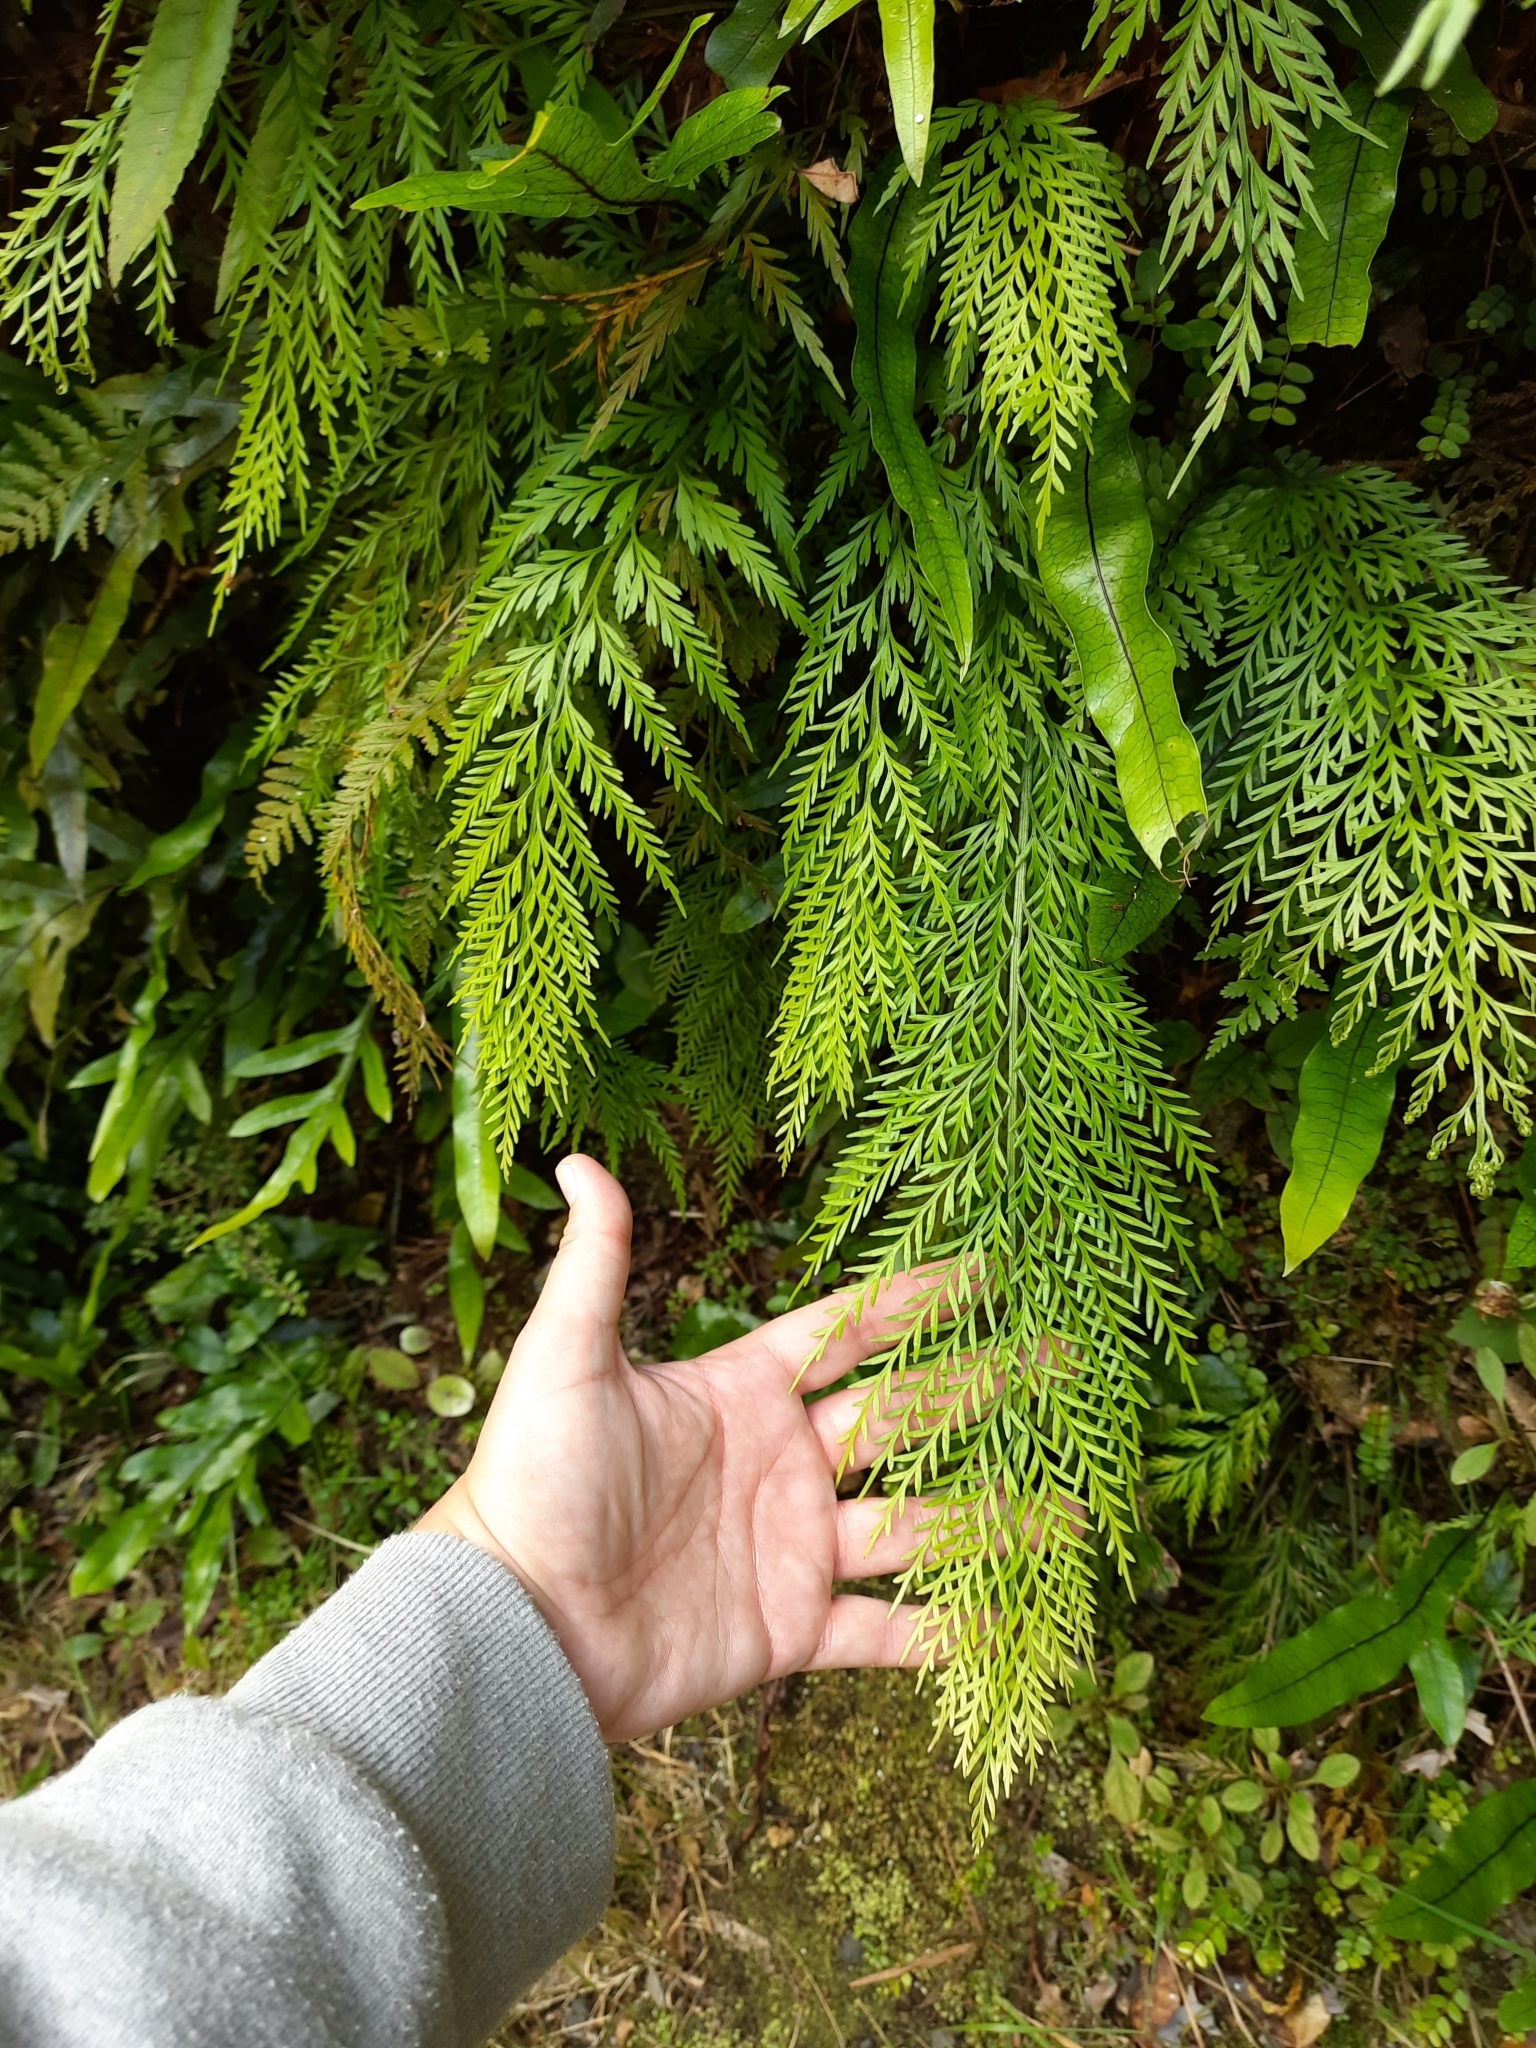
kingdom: Plantae
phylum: Tracheophyta
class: Polypodiopsida
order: Polypodiales
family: Aspleniaceae
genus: Asplenium
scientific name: Asplenium appendiculatum
